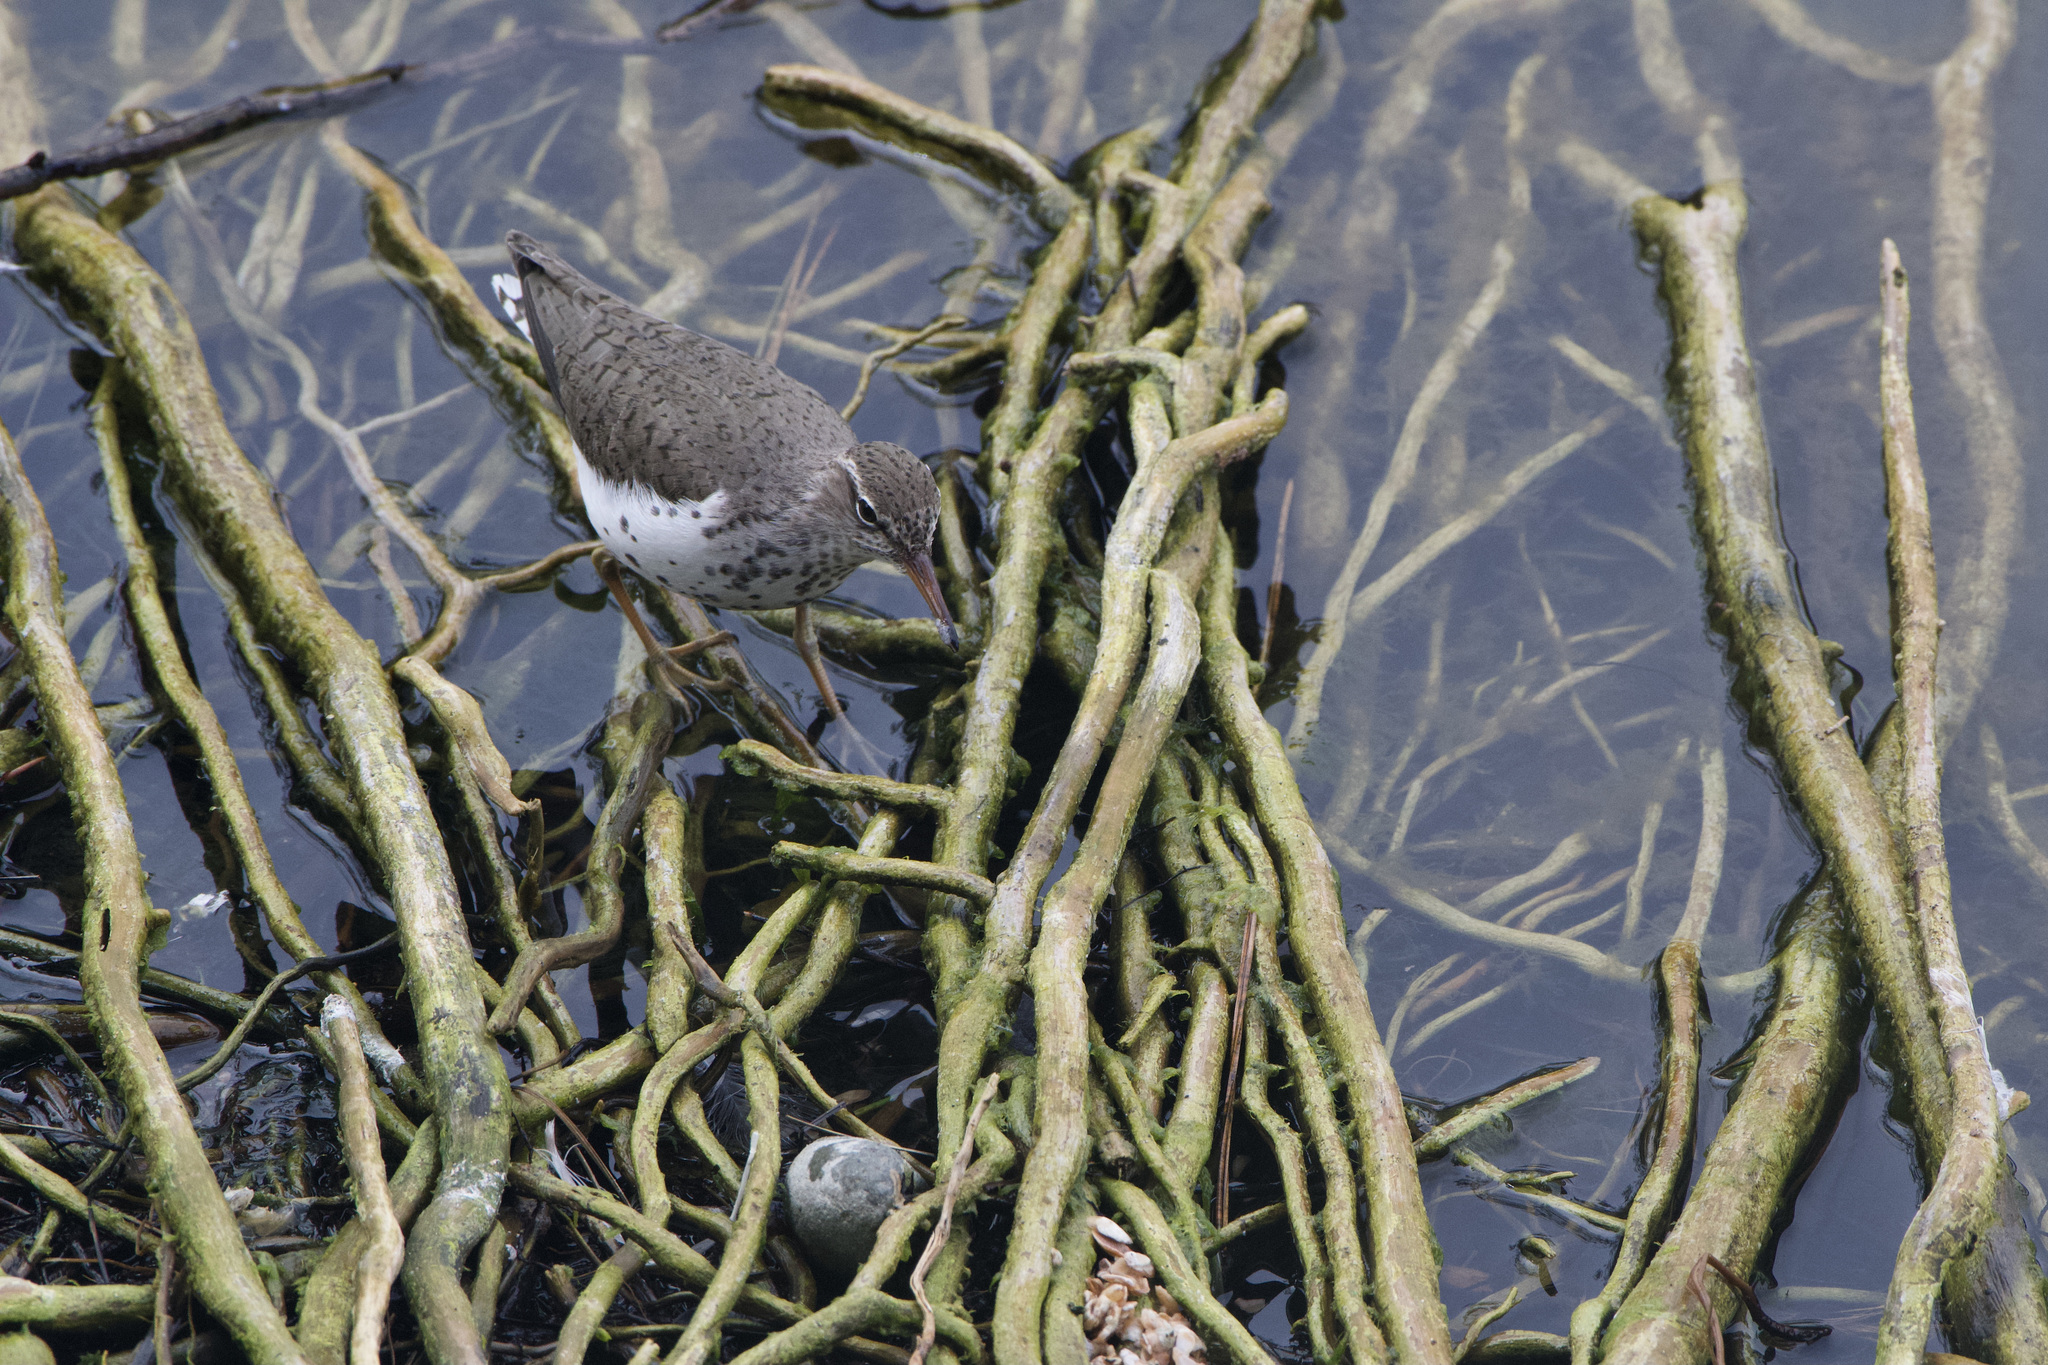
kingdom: Animalia
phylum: Chordata
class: Aves
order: Charadriiformes
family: Scolopacidae
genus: Actitis
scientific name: Actitis macularius
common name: Spotted sandpiper
